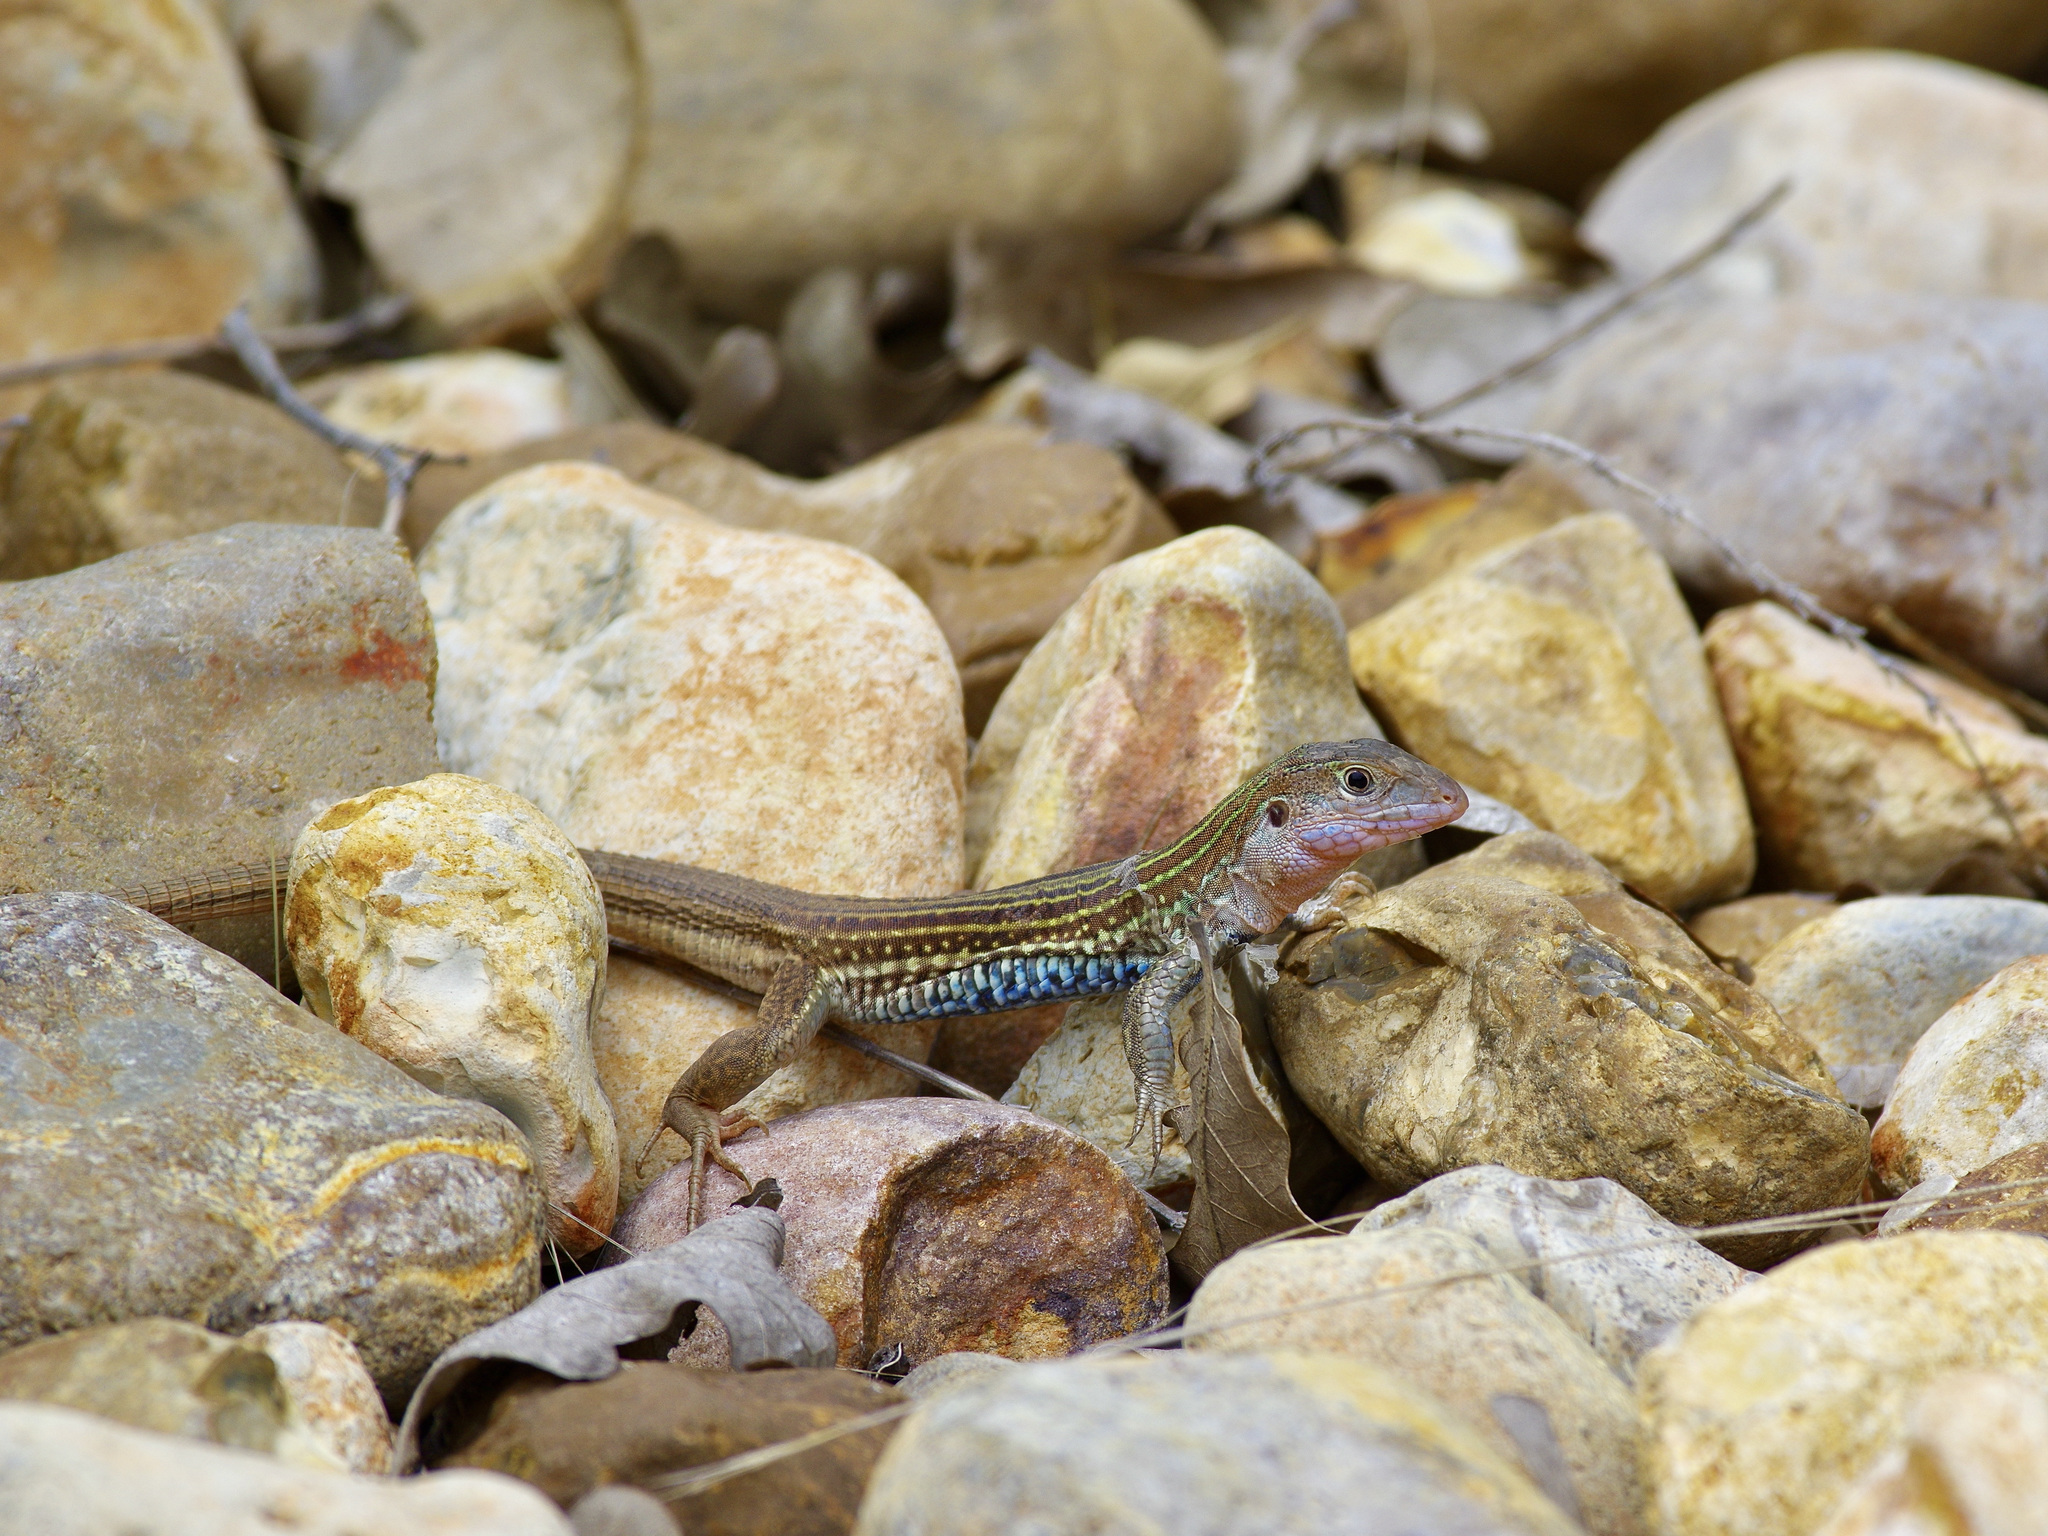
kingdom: Animalia
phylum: Chordata
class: Squamata
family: Teiidae
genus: Aspidoscelis
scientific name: Aspidoscelis gularis
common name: Eastern spotted whiptail
